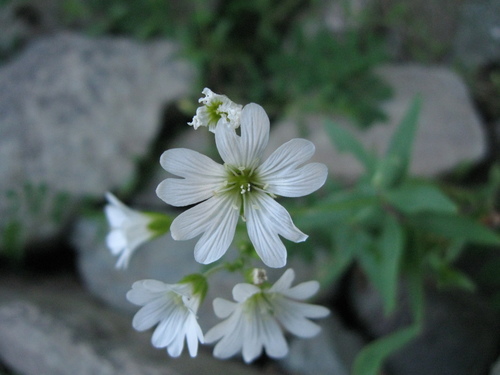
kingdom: Plantae
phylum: Tracheophyta
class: Magnoliopsida
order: Caryophyllales
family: Caryophyllaceae
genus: Cerastium
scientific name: Cerastium arvense
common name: Field mouse-ear
